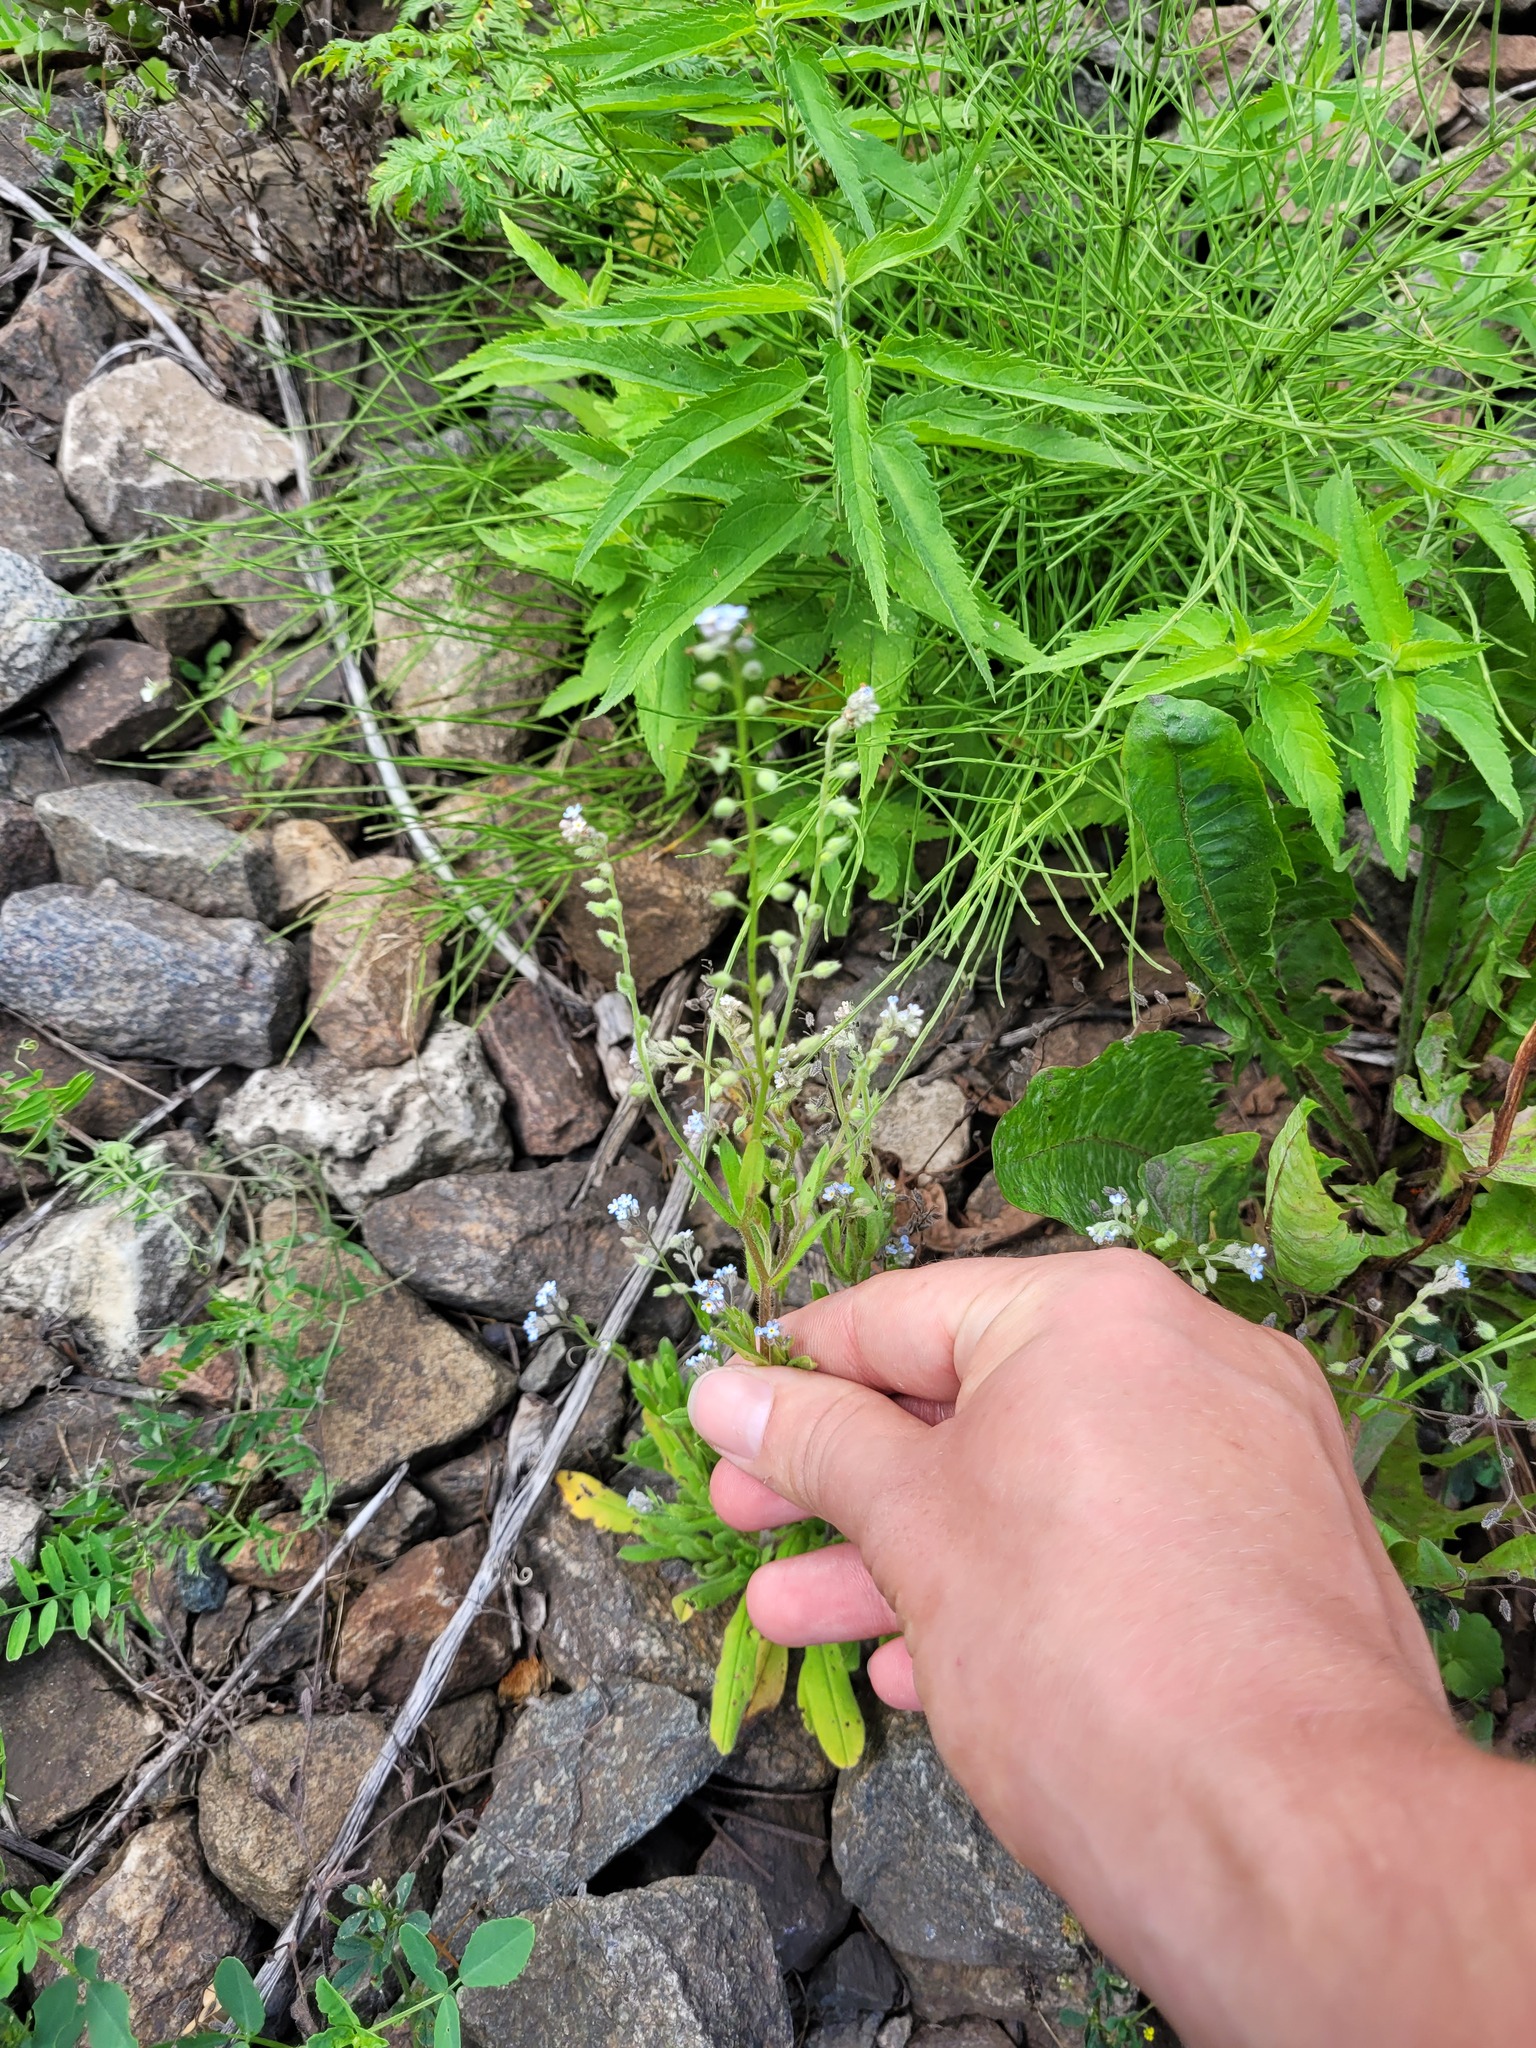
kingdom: Plantae
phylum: Tracheophyta
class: Magnoliopsida
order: Boraginales
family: Boraginaceae
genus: Myosotis
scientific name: Myosotis arvensis
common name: Field forget-me-not
